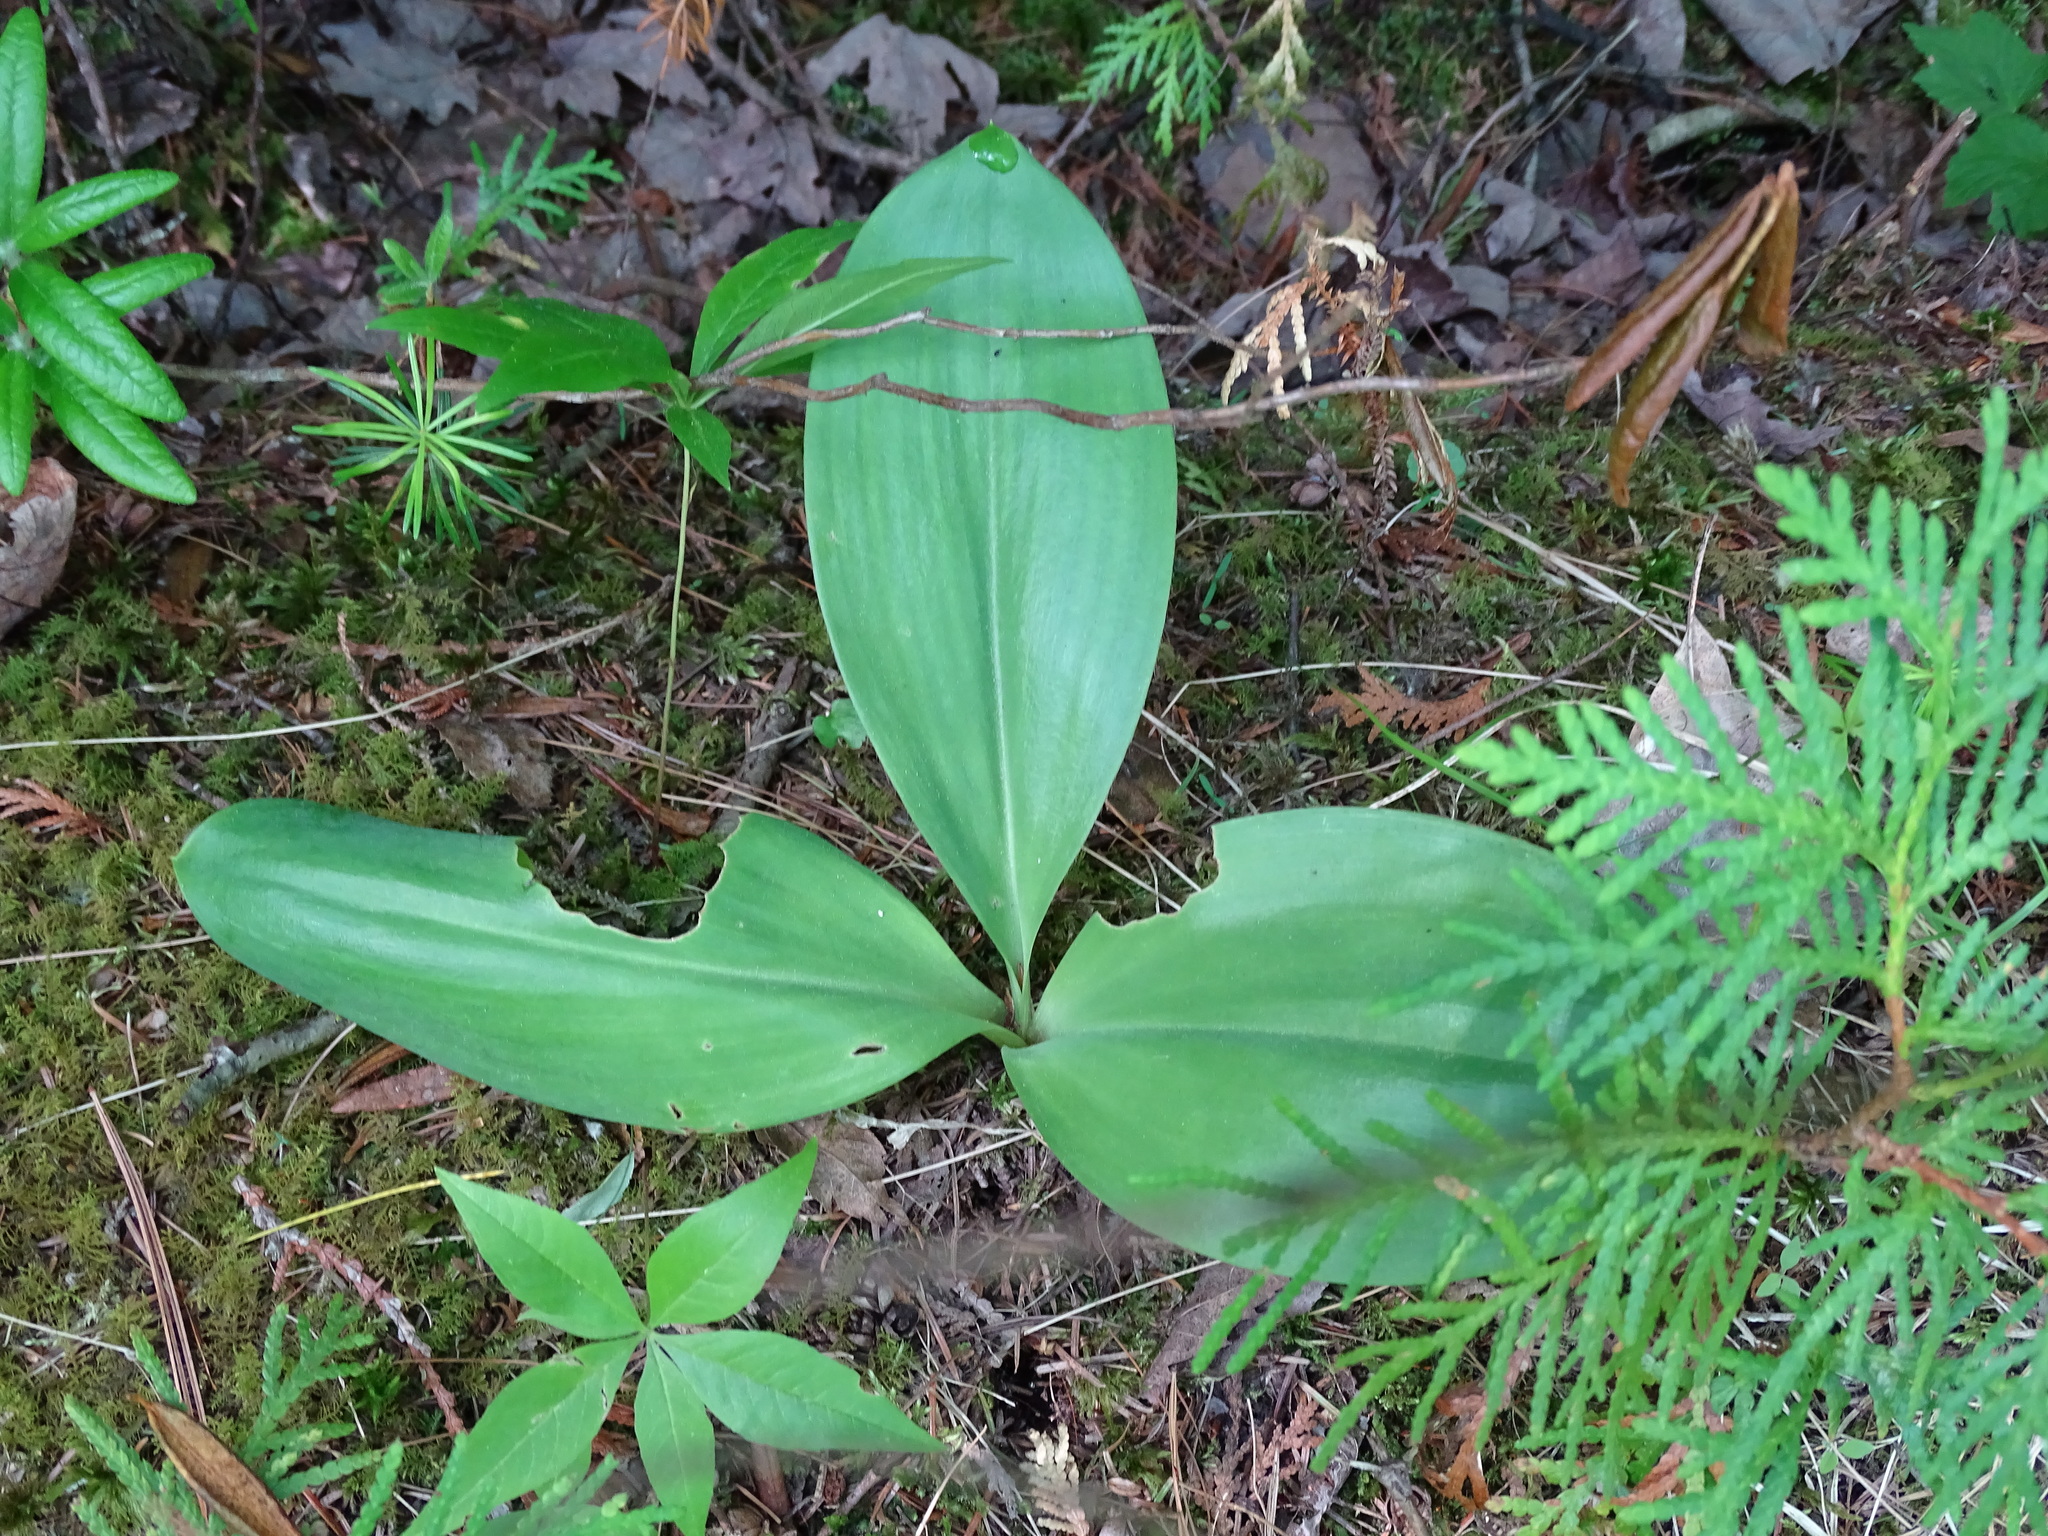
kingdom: Plantae
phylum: Tracheophyta
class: Liliopsida
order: Liliales
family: Liliaceae
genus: Clintonia
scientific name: Clintonia borealis
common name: Yellow clintonia
